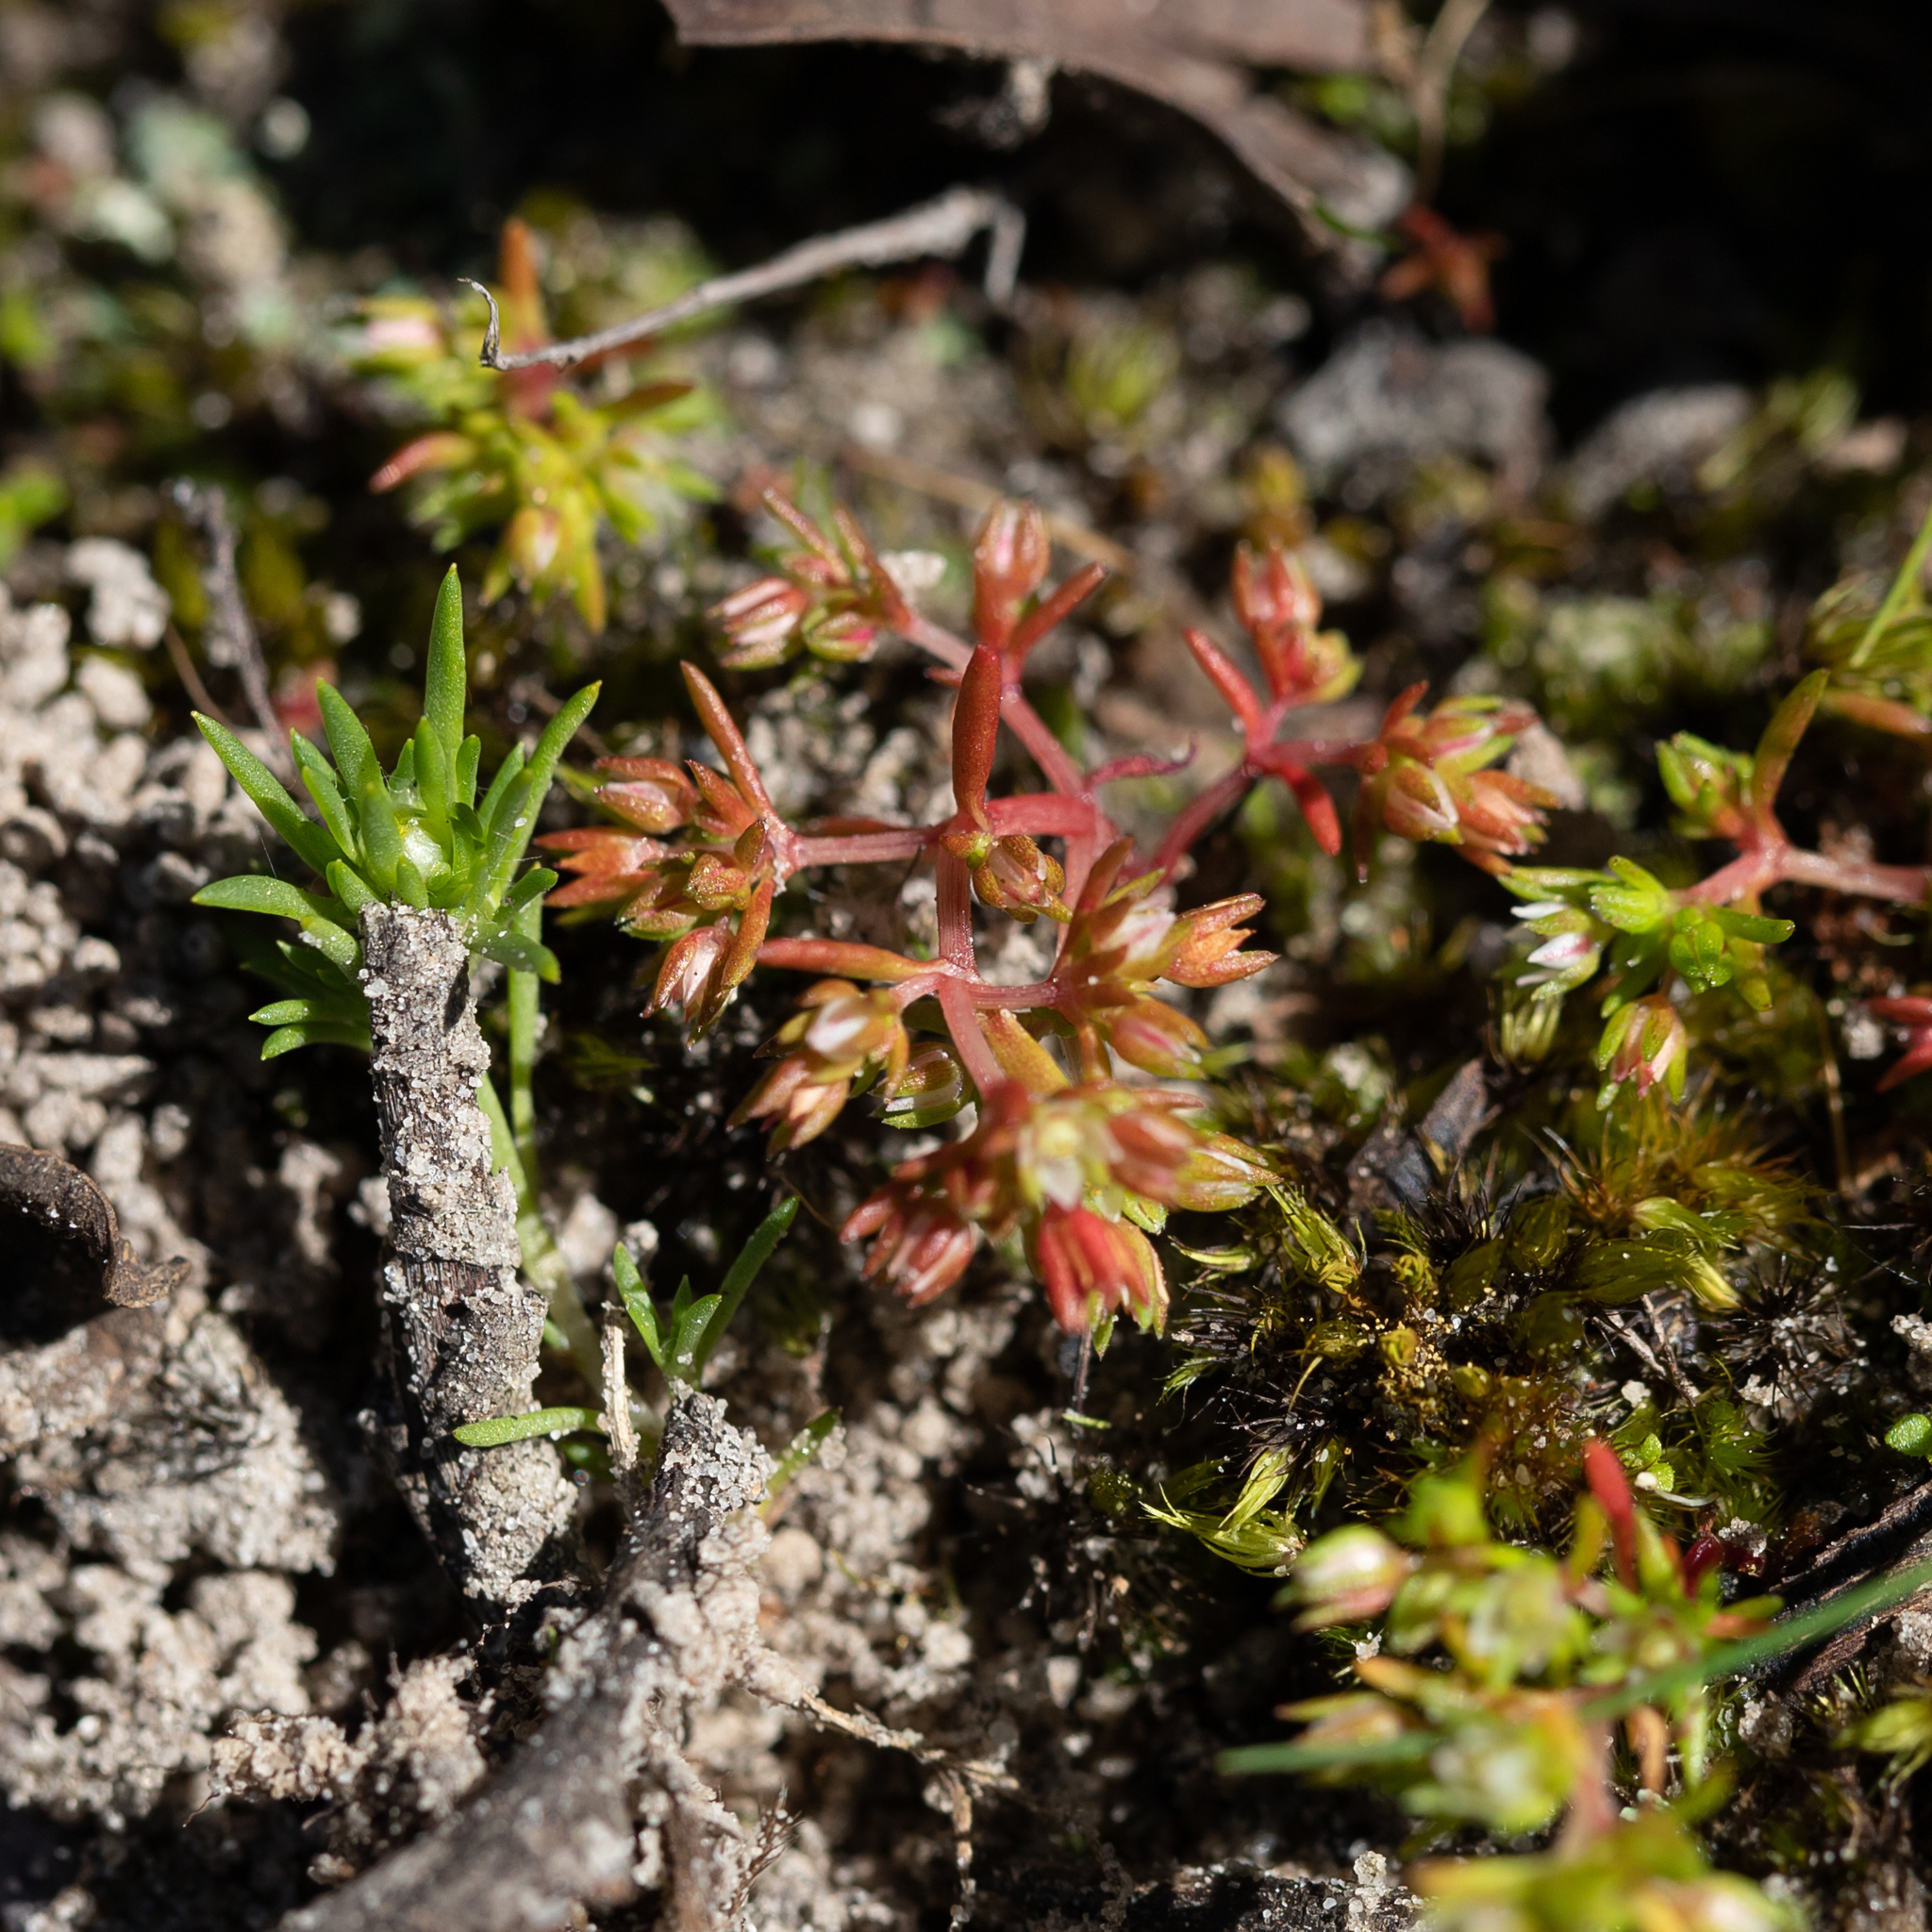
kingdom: Plantae
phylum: Tracheophyta
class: Magnoliopsida
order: Saxifragales
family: Crassulaceae
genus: Crassula
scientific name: Crassula decumbens
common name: Scilly pigmyweed
